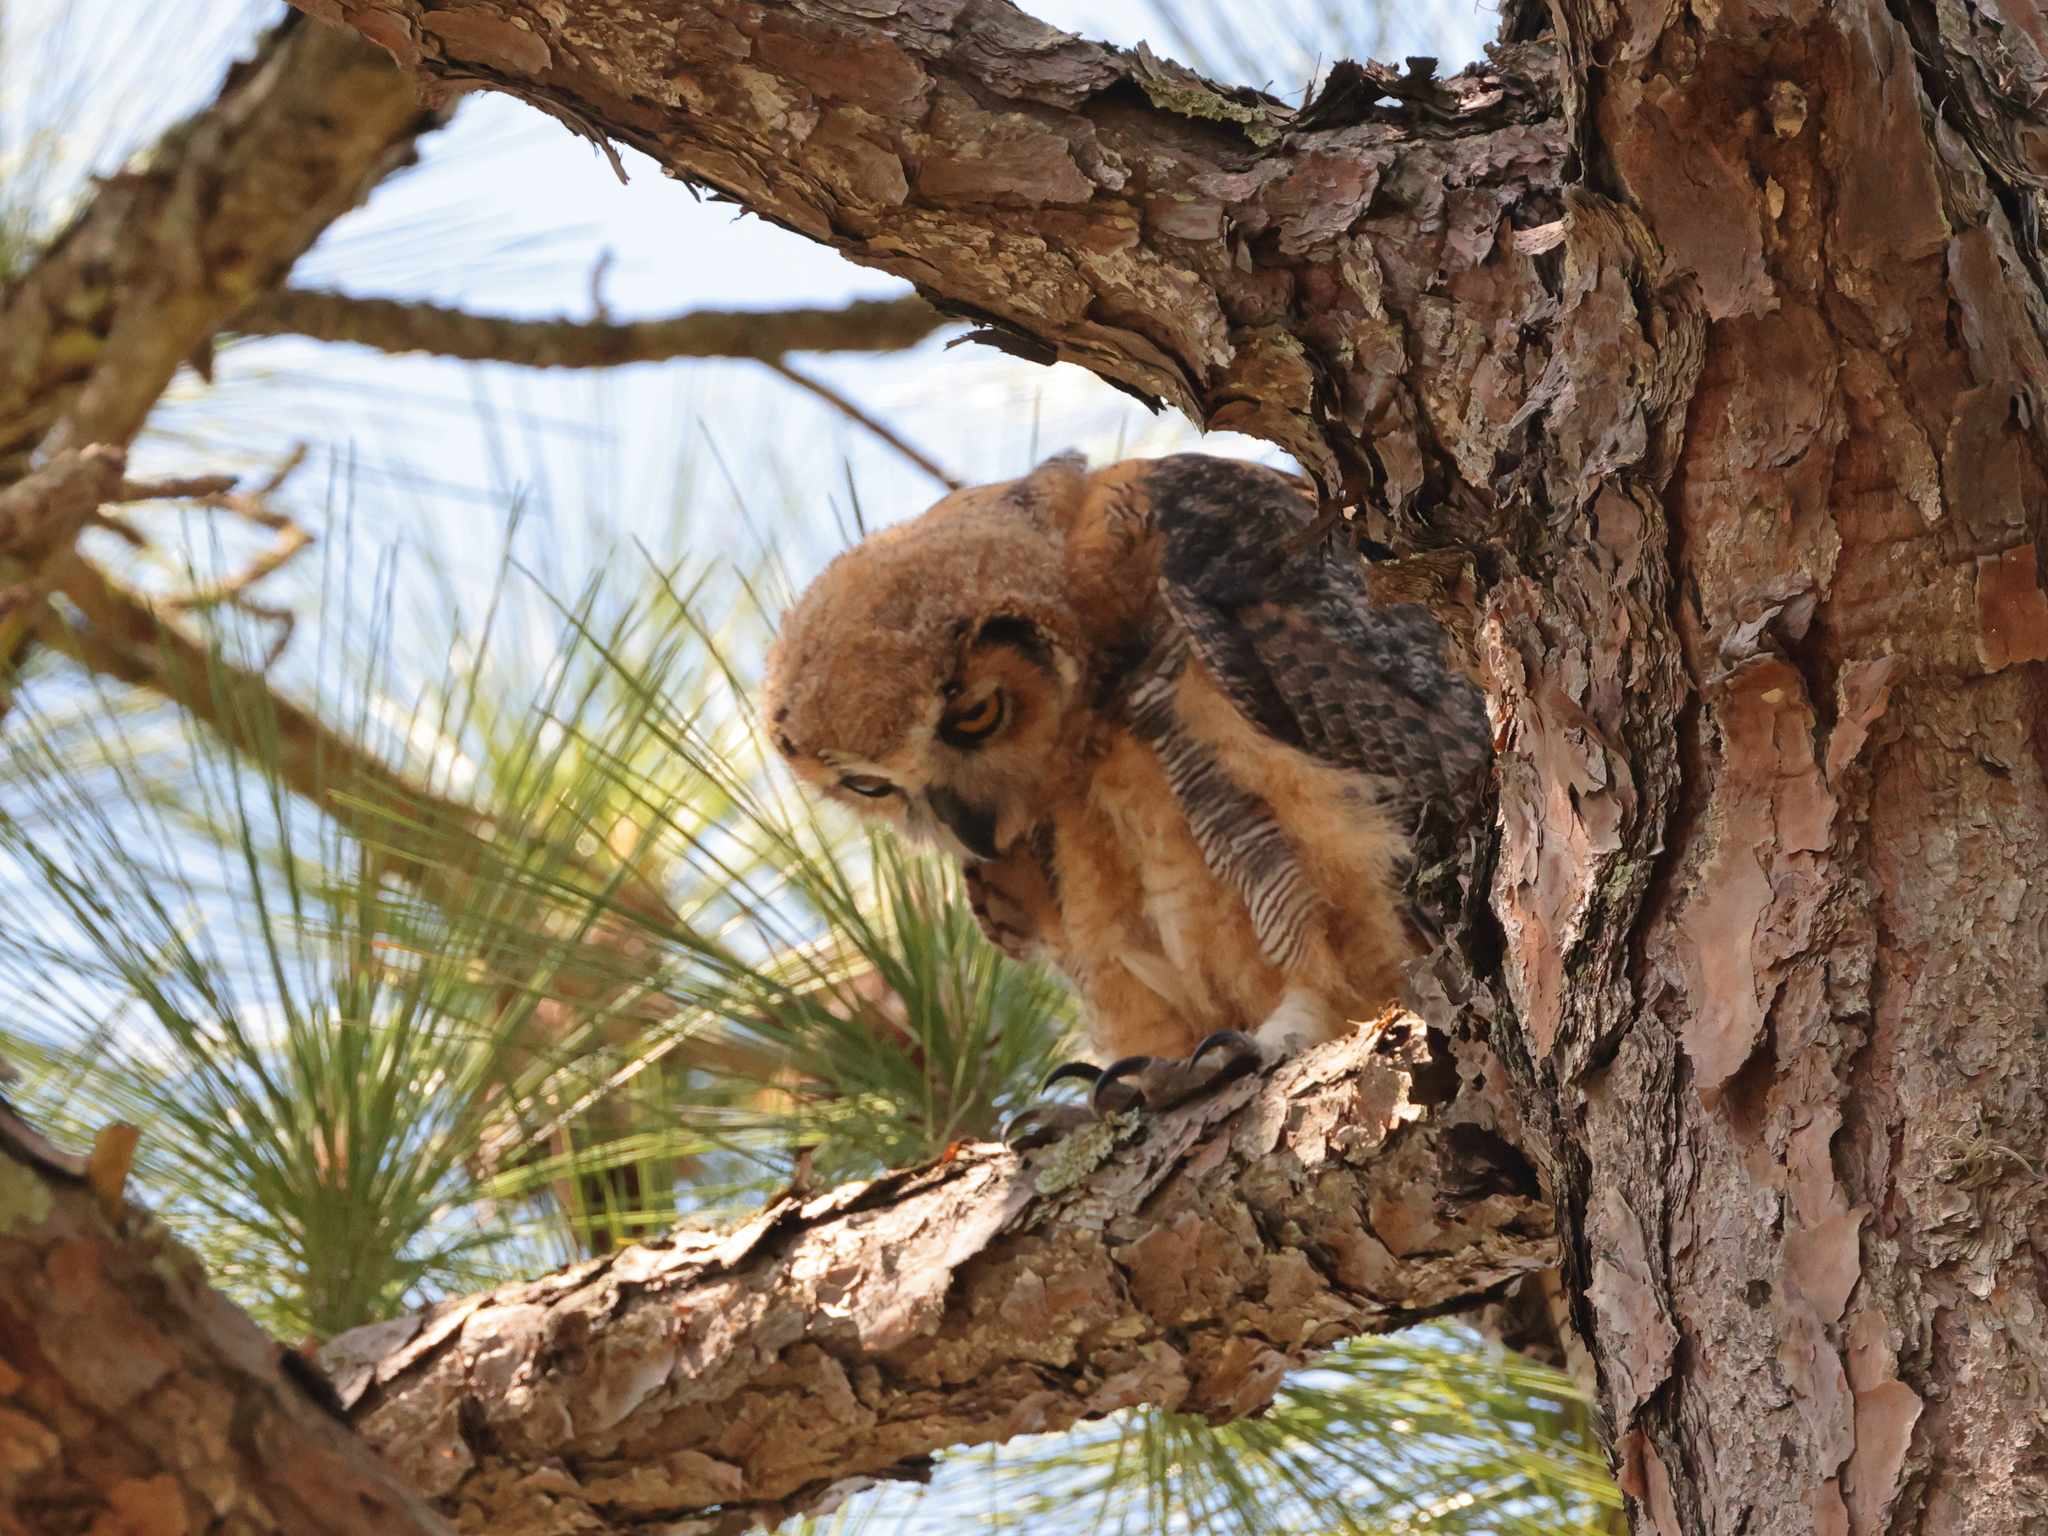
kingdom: Animalia
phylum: Chordata
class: Aves
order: Strigiformes
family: Strigidae
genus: Bubo
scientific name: Bubo virginianus
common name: Great horned owl
